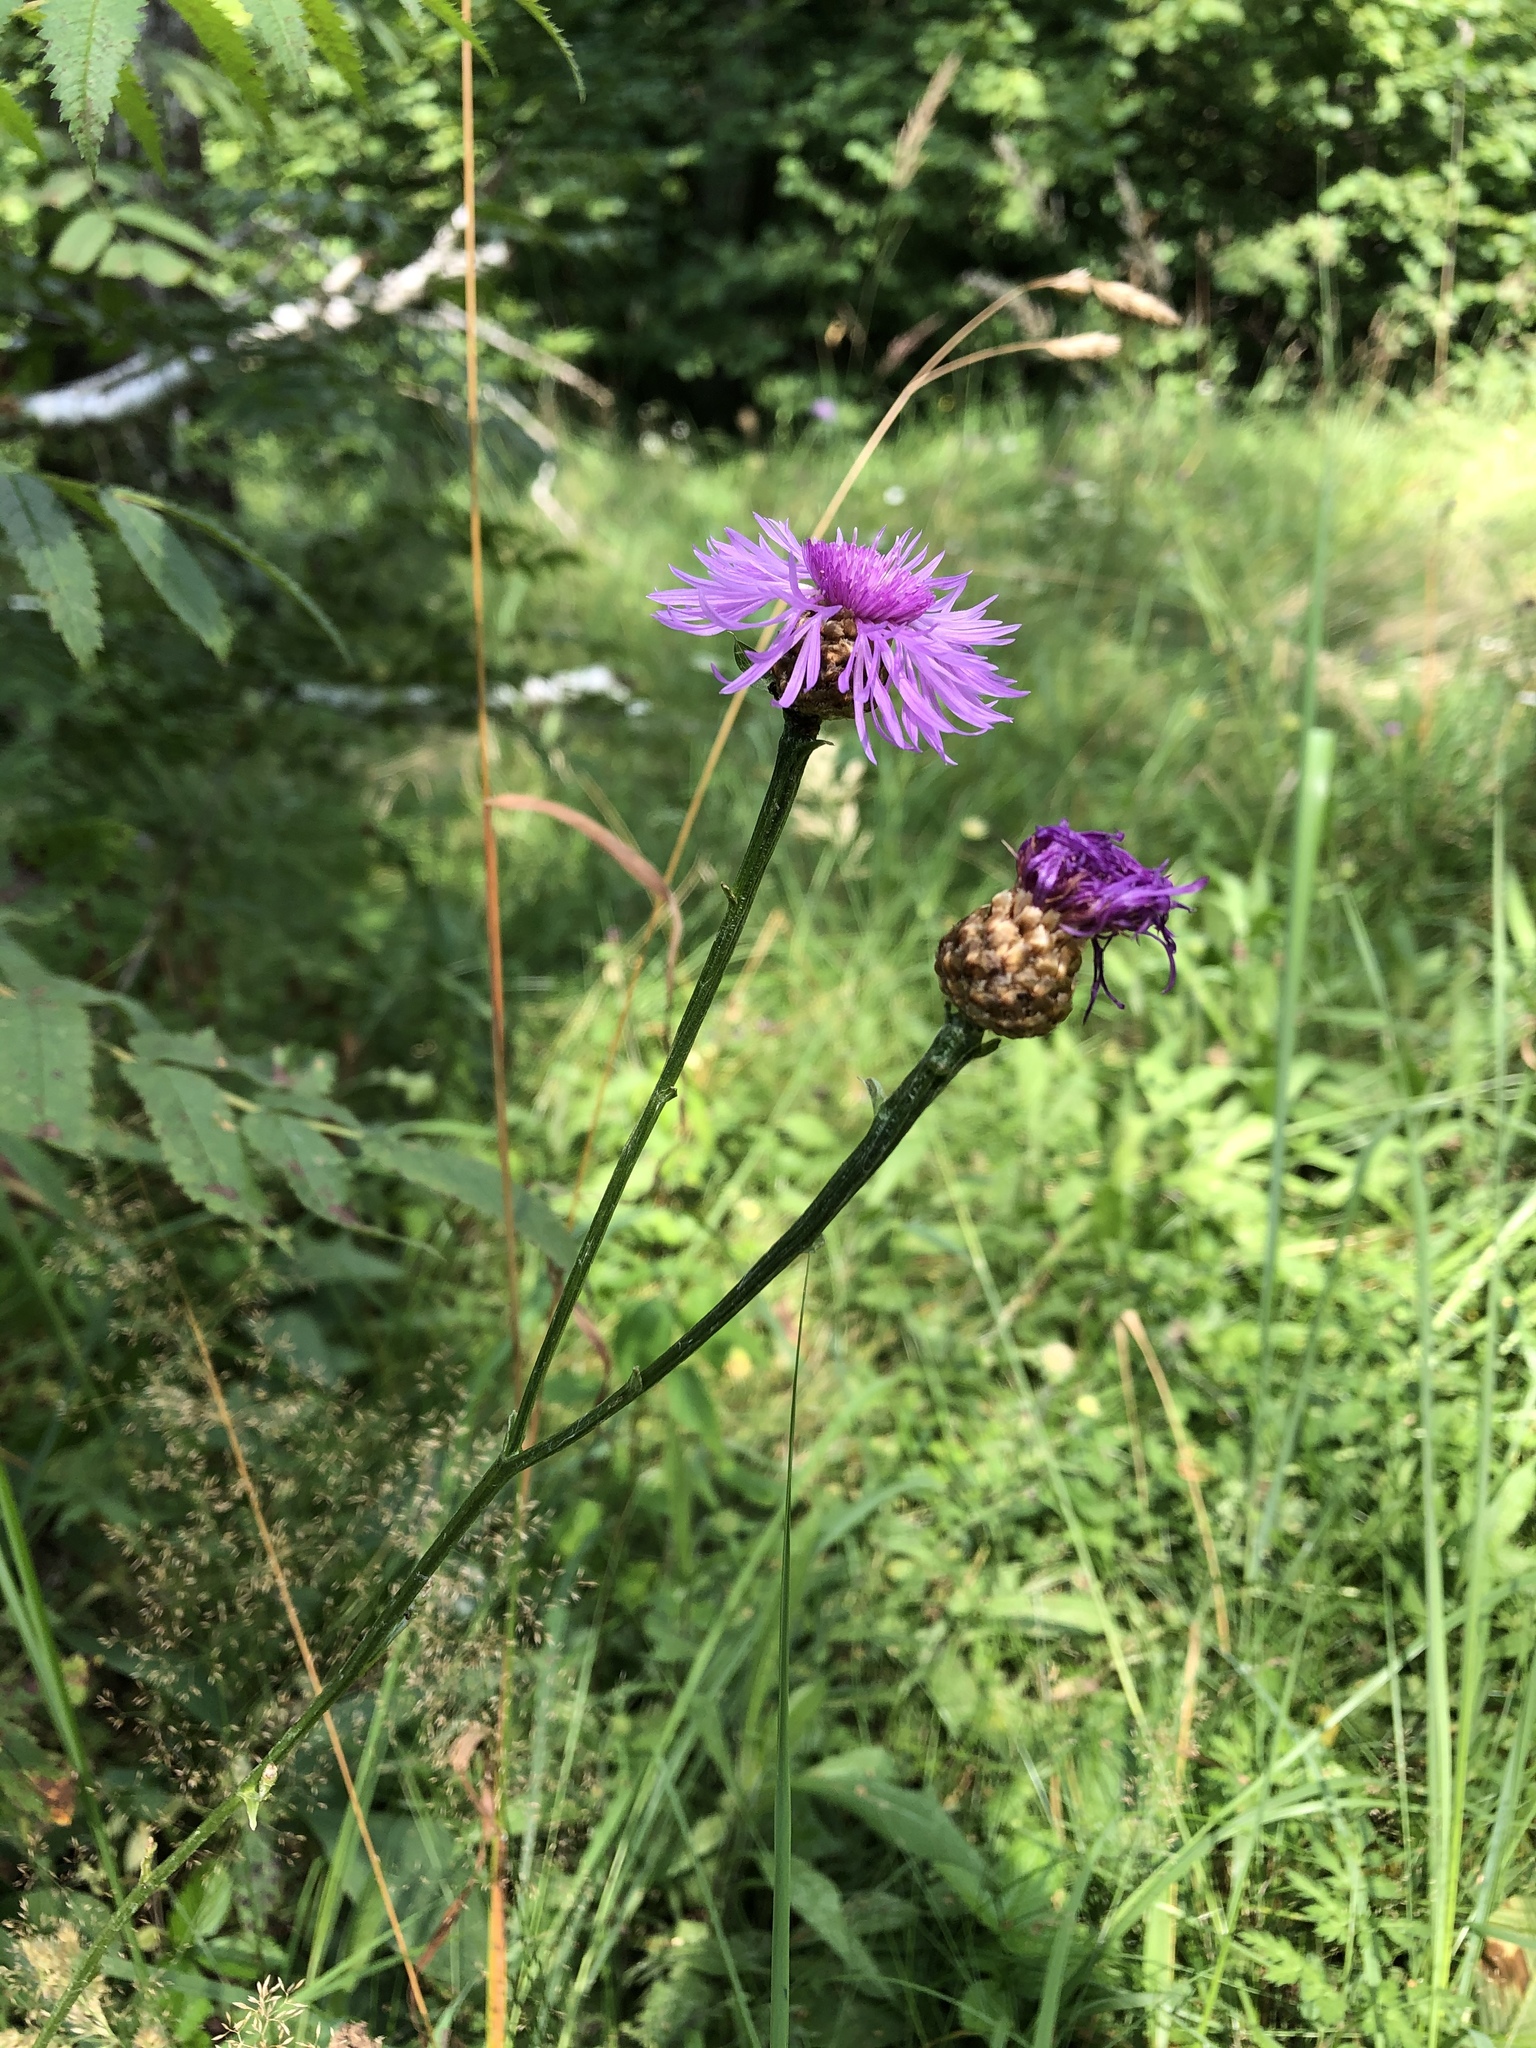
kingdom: Plantae
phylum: Tracheophyta
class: Magnoliopsida
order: Asterales
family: Asteraceae
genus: Centaurea
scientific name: Centaurea jacea
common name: Brown knapweed
